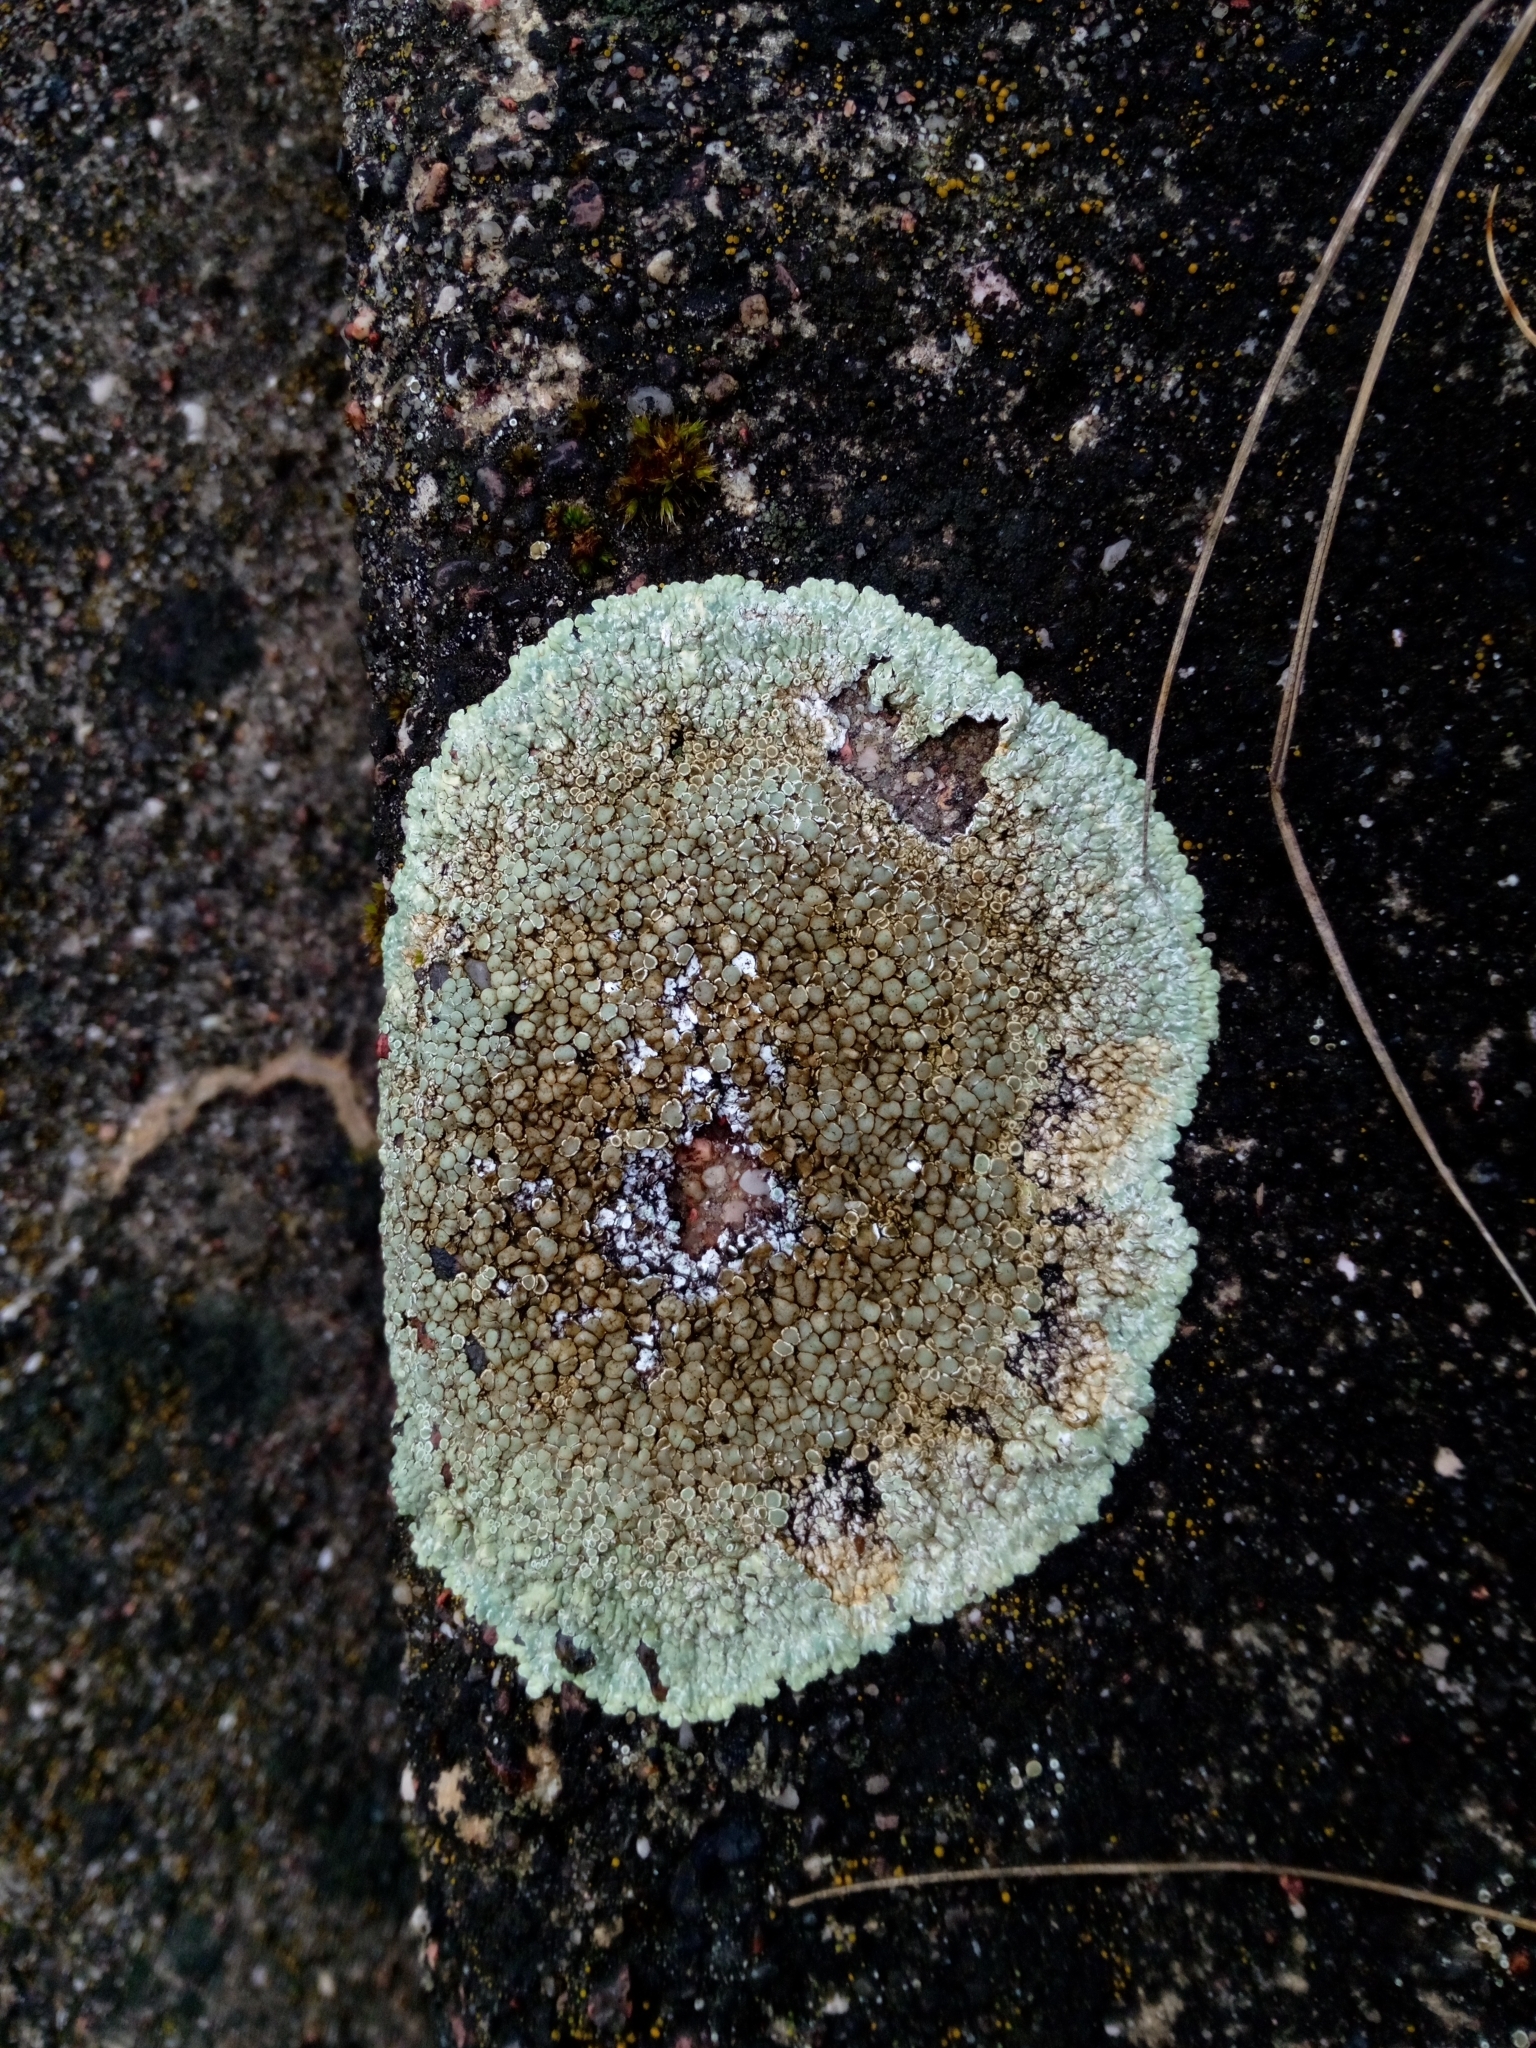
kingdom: Fungi
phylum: Ascomycota
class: Lecanoromycetes
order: Lecanorales
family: Lecanoraceae
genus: Protoparmeliopsis
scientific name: Protoparmeliopsis muralis
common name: Stonewall rim lichen
